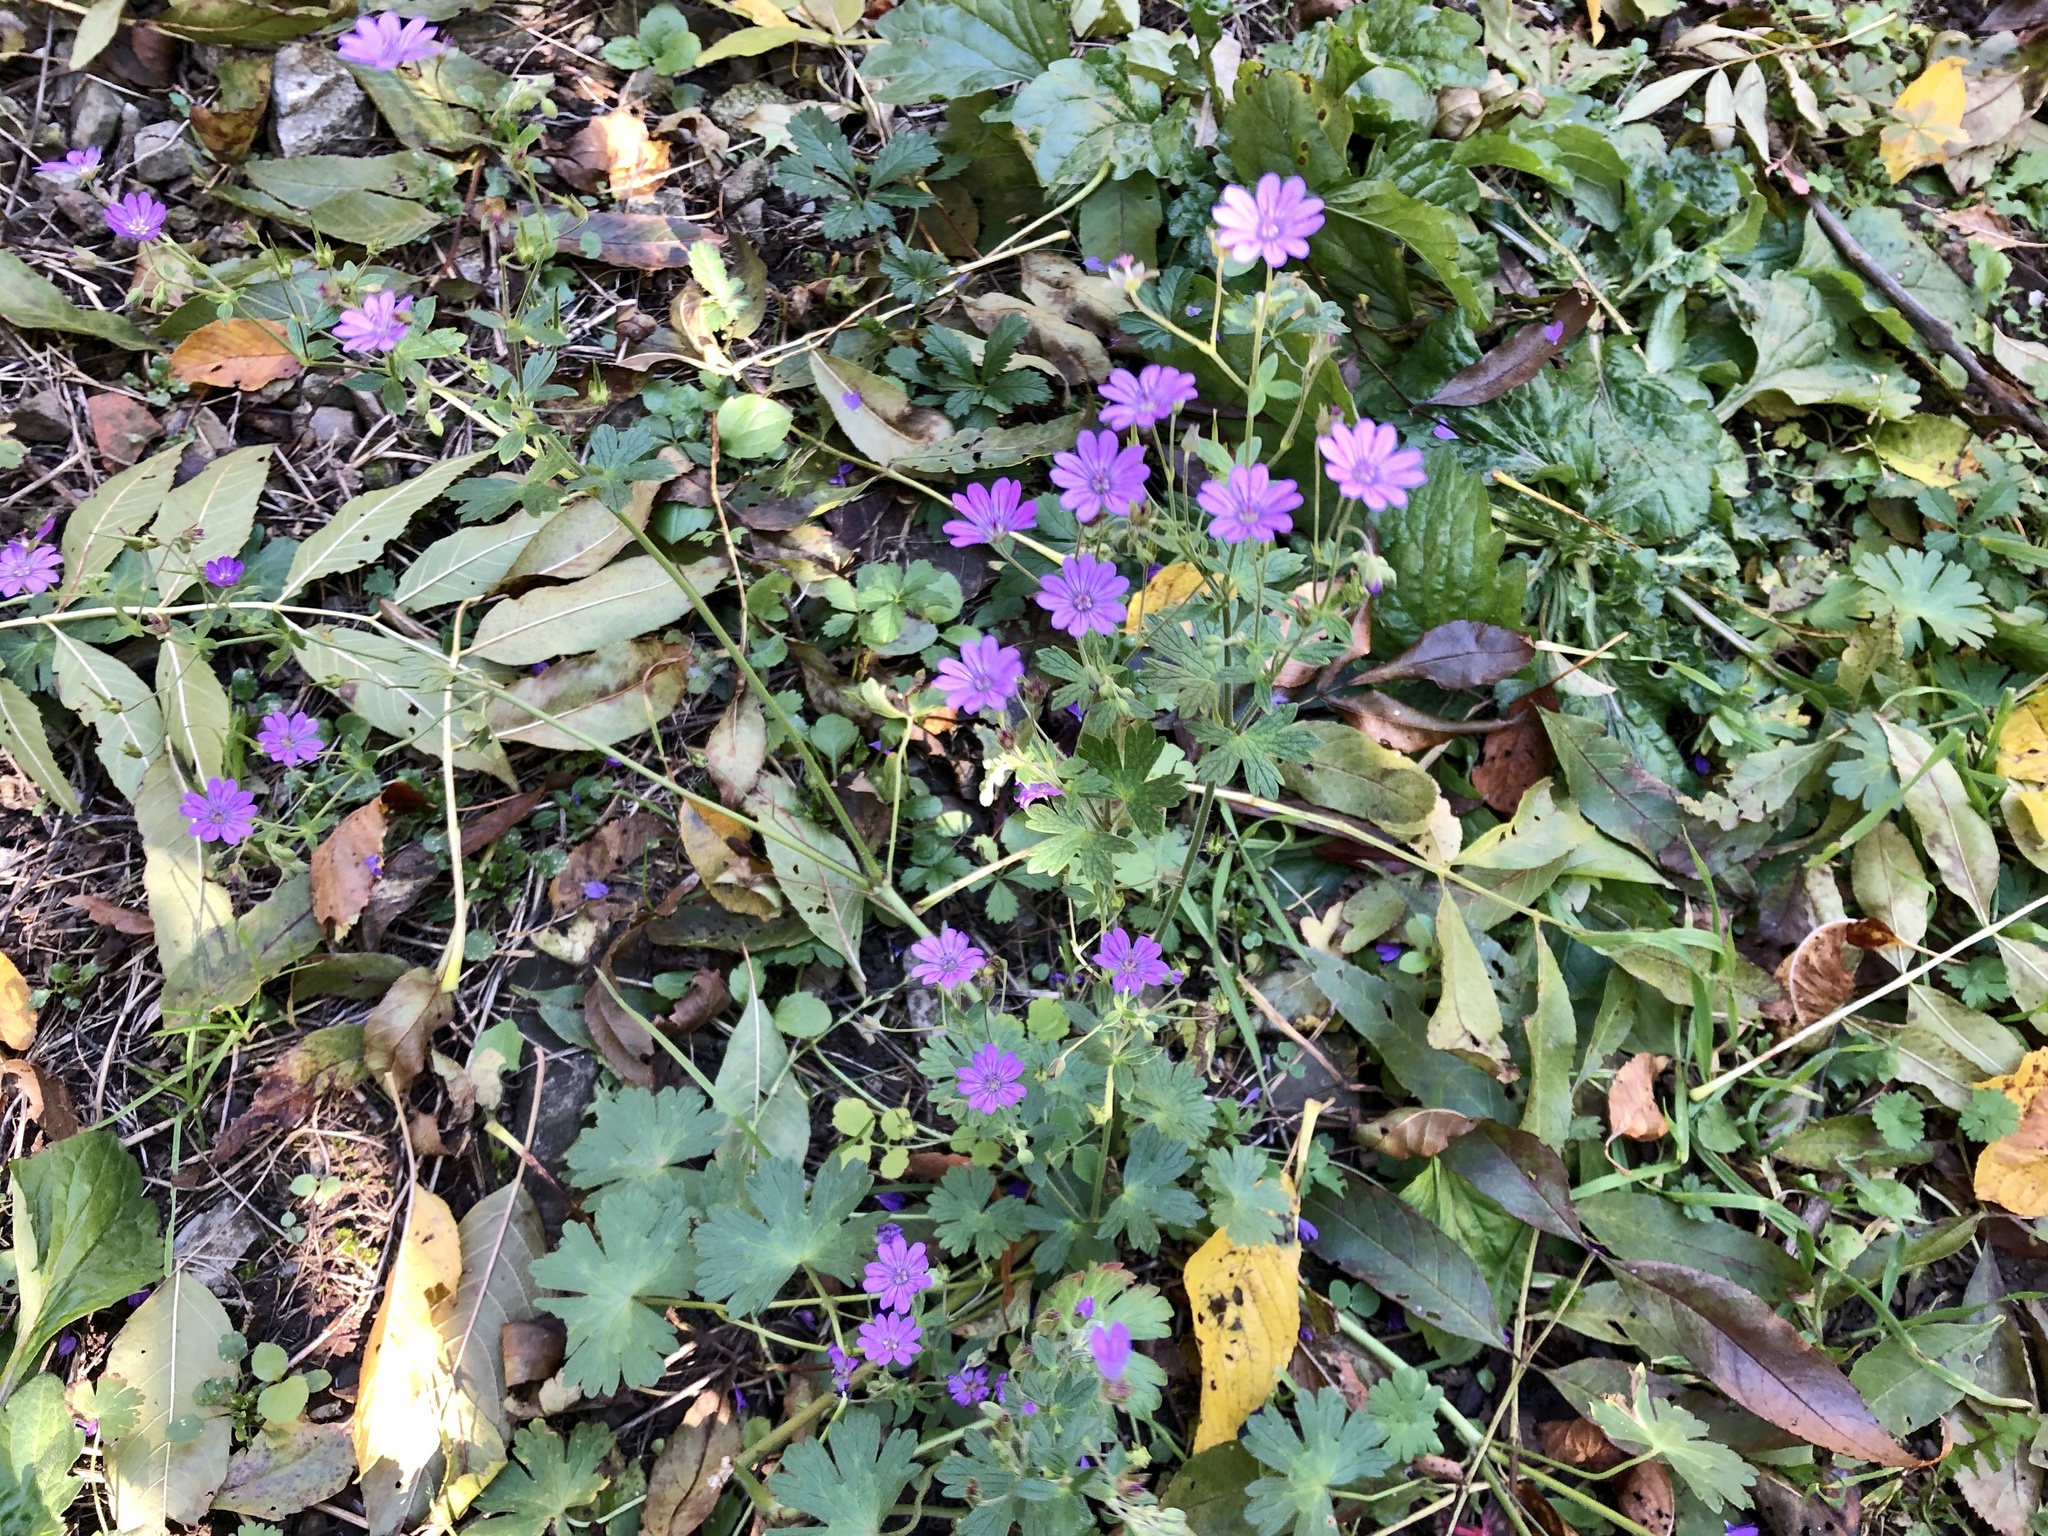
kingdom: Plantae
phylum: Tracheophyta
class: Magnoliopsida
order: Geraniales
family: Geraniaceae
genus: Geranium
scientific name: Geranium pyrenaicum
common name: Hedgerow crane's-bill
